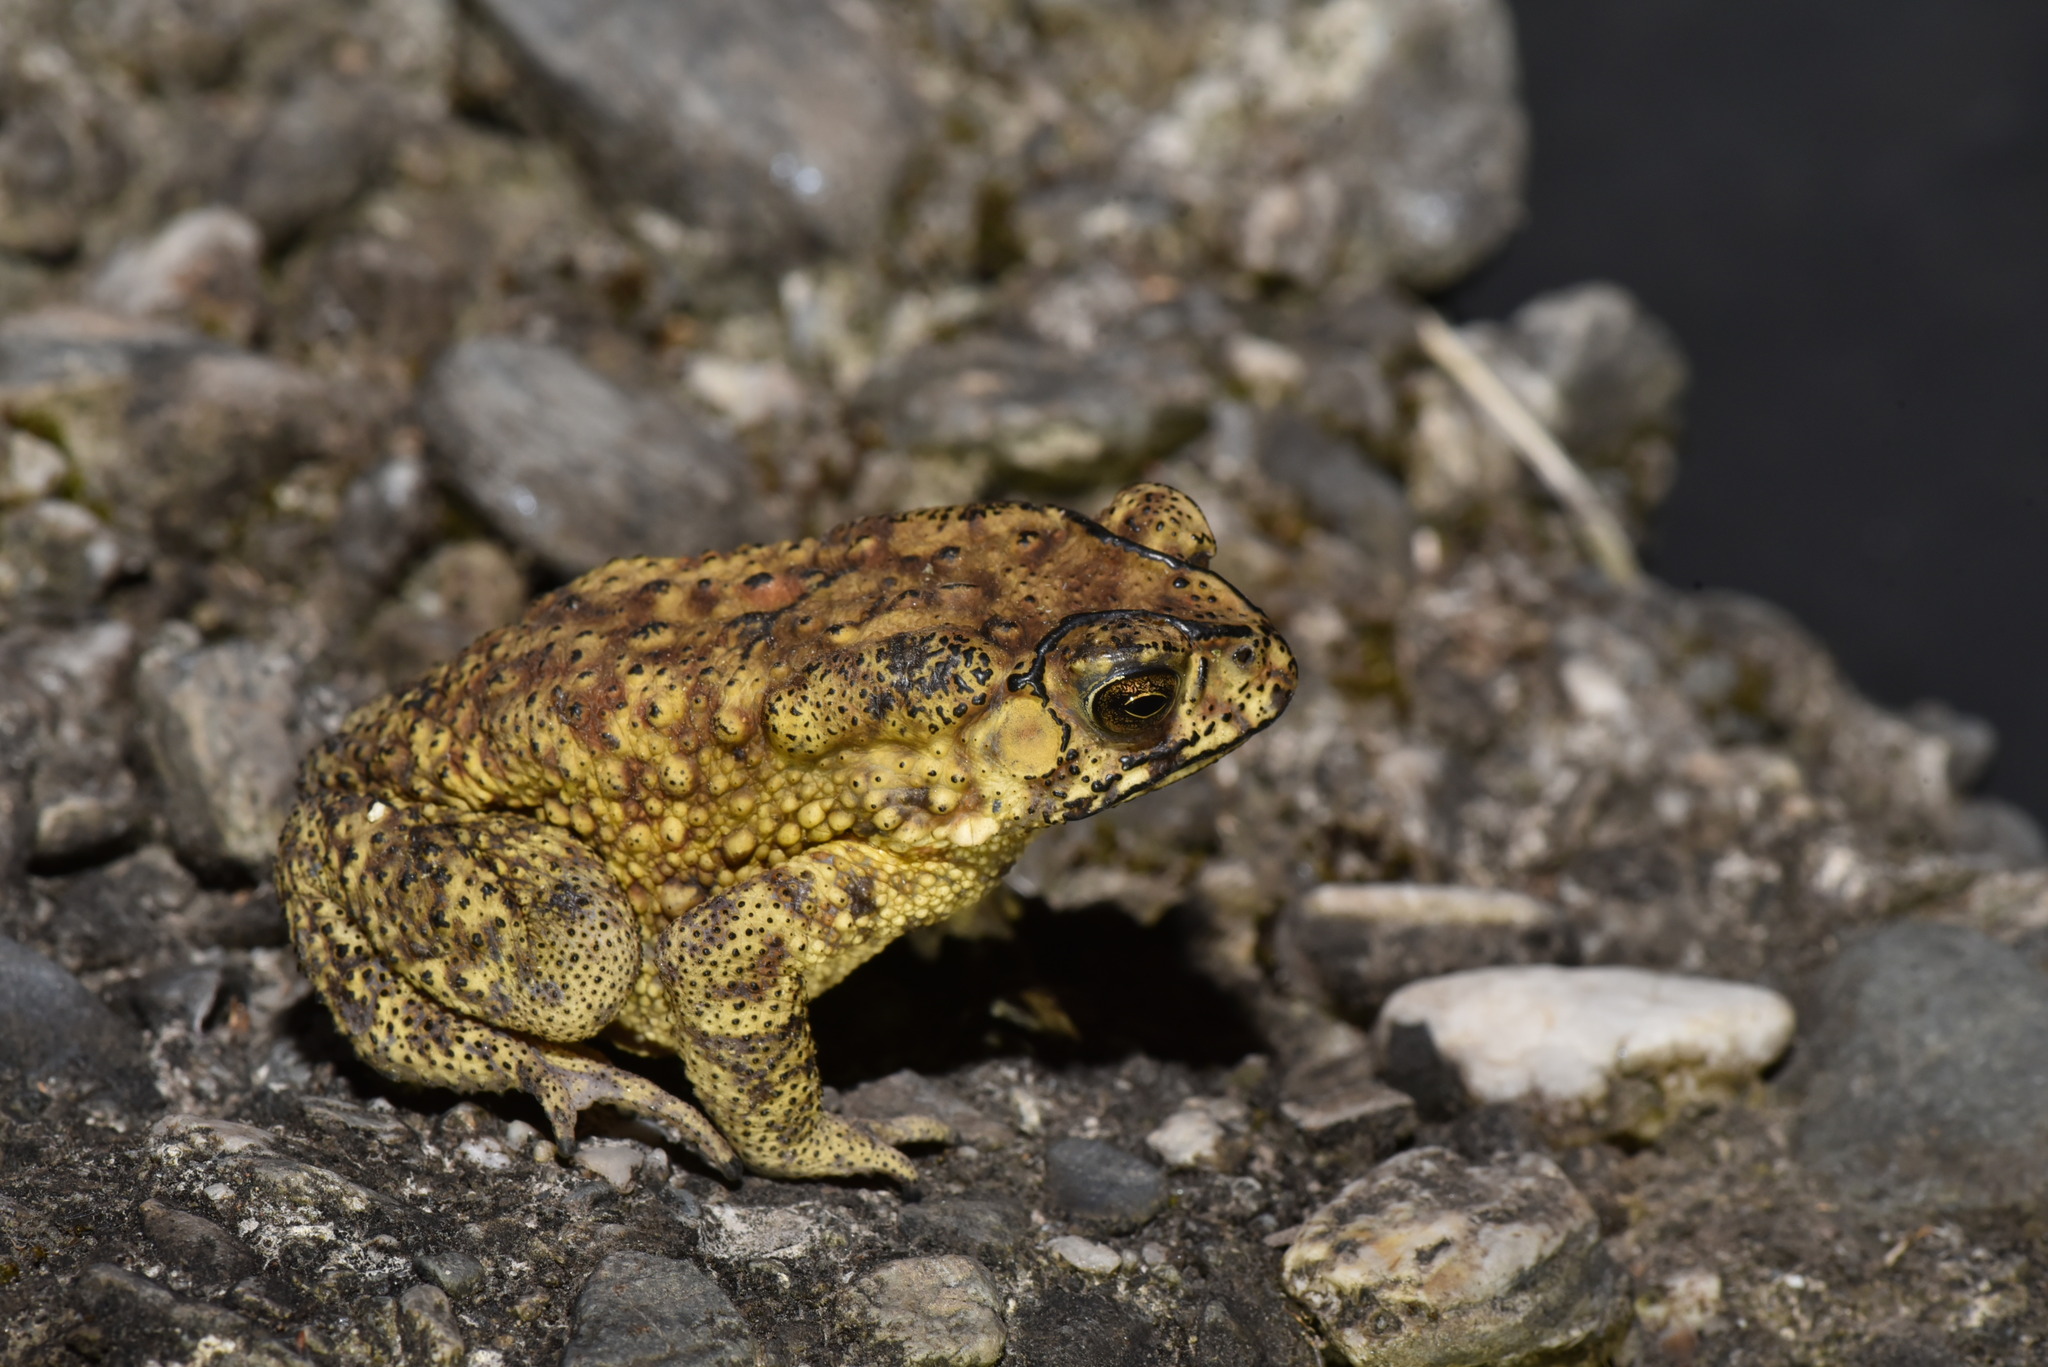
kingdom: Animalia
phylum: Chordata
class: Amphibia
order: Anura
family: Bufonidae
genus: Duttaphrynus
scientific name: Duttaphrynus melanostictus
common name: Common sunda toad
